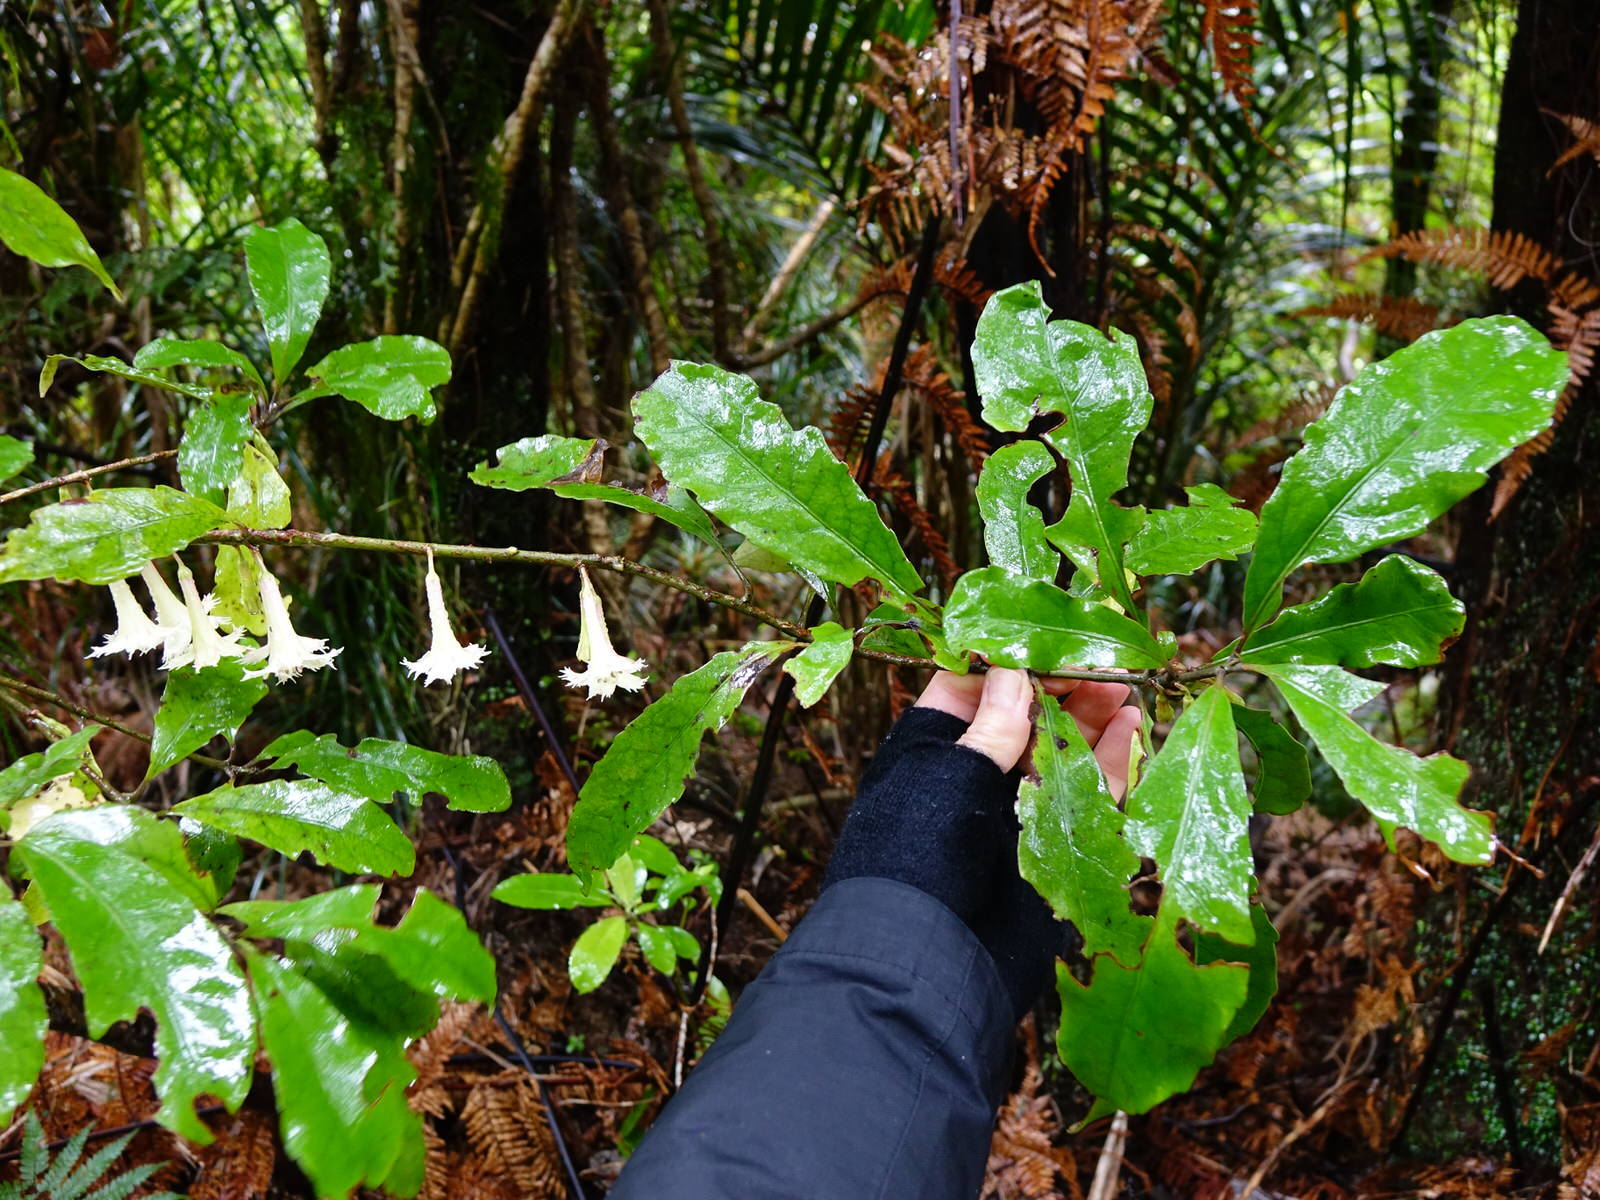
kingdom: Plantae
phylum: Tracheophyta
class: Magnoliopsida
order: Asterales
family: Alseuosmiaceae
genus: Alseuosmia
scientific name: Alseuosmia macrophylla
